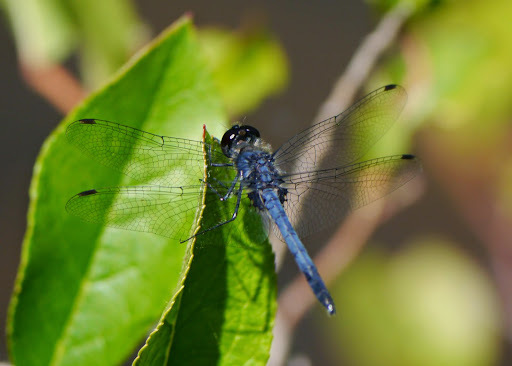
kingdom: Animalia
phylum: Arthropoda
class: Insecta
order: Odonata
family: Libellulidae
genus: Celithemis
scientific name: Celithemis verna
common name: Double-ringed pennant
